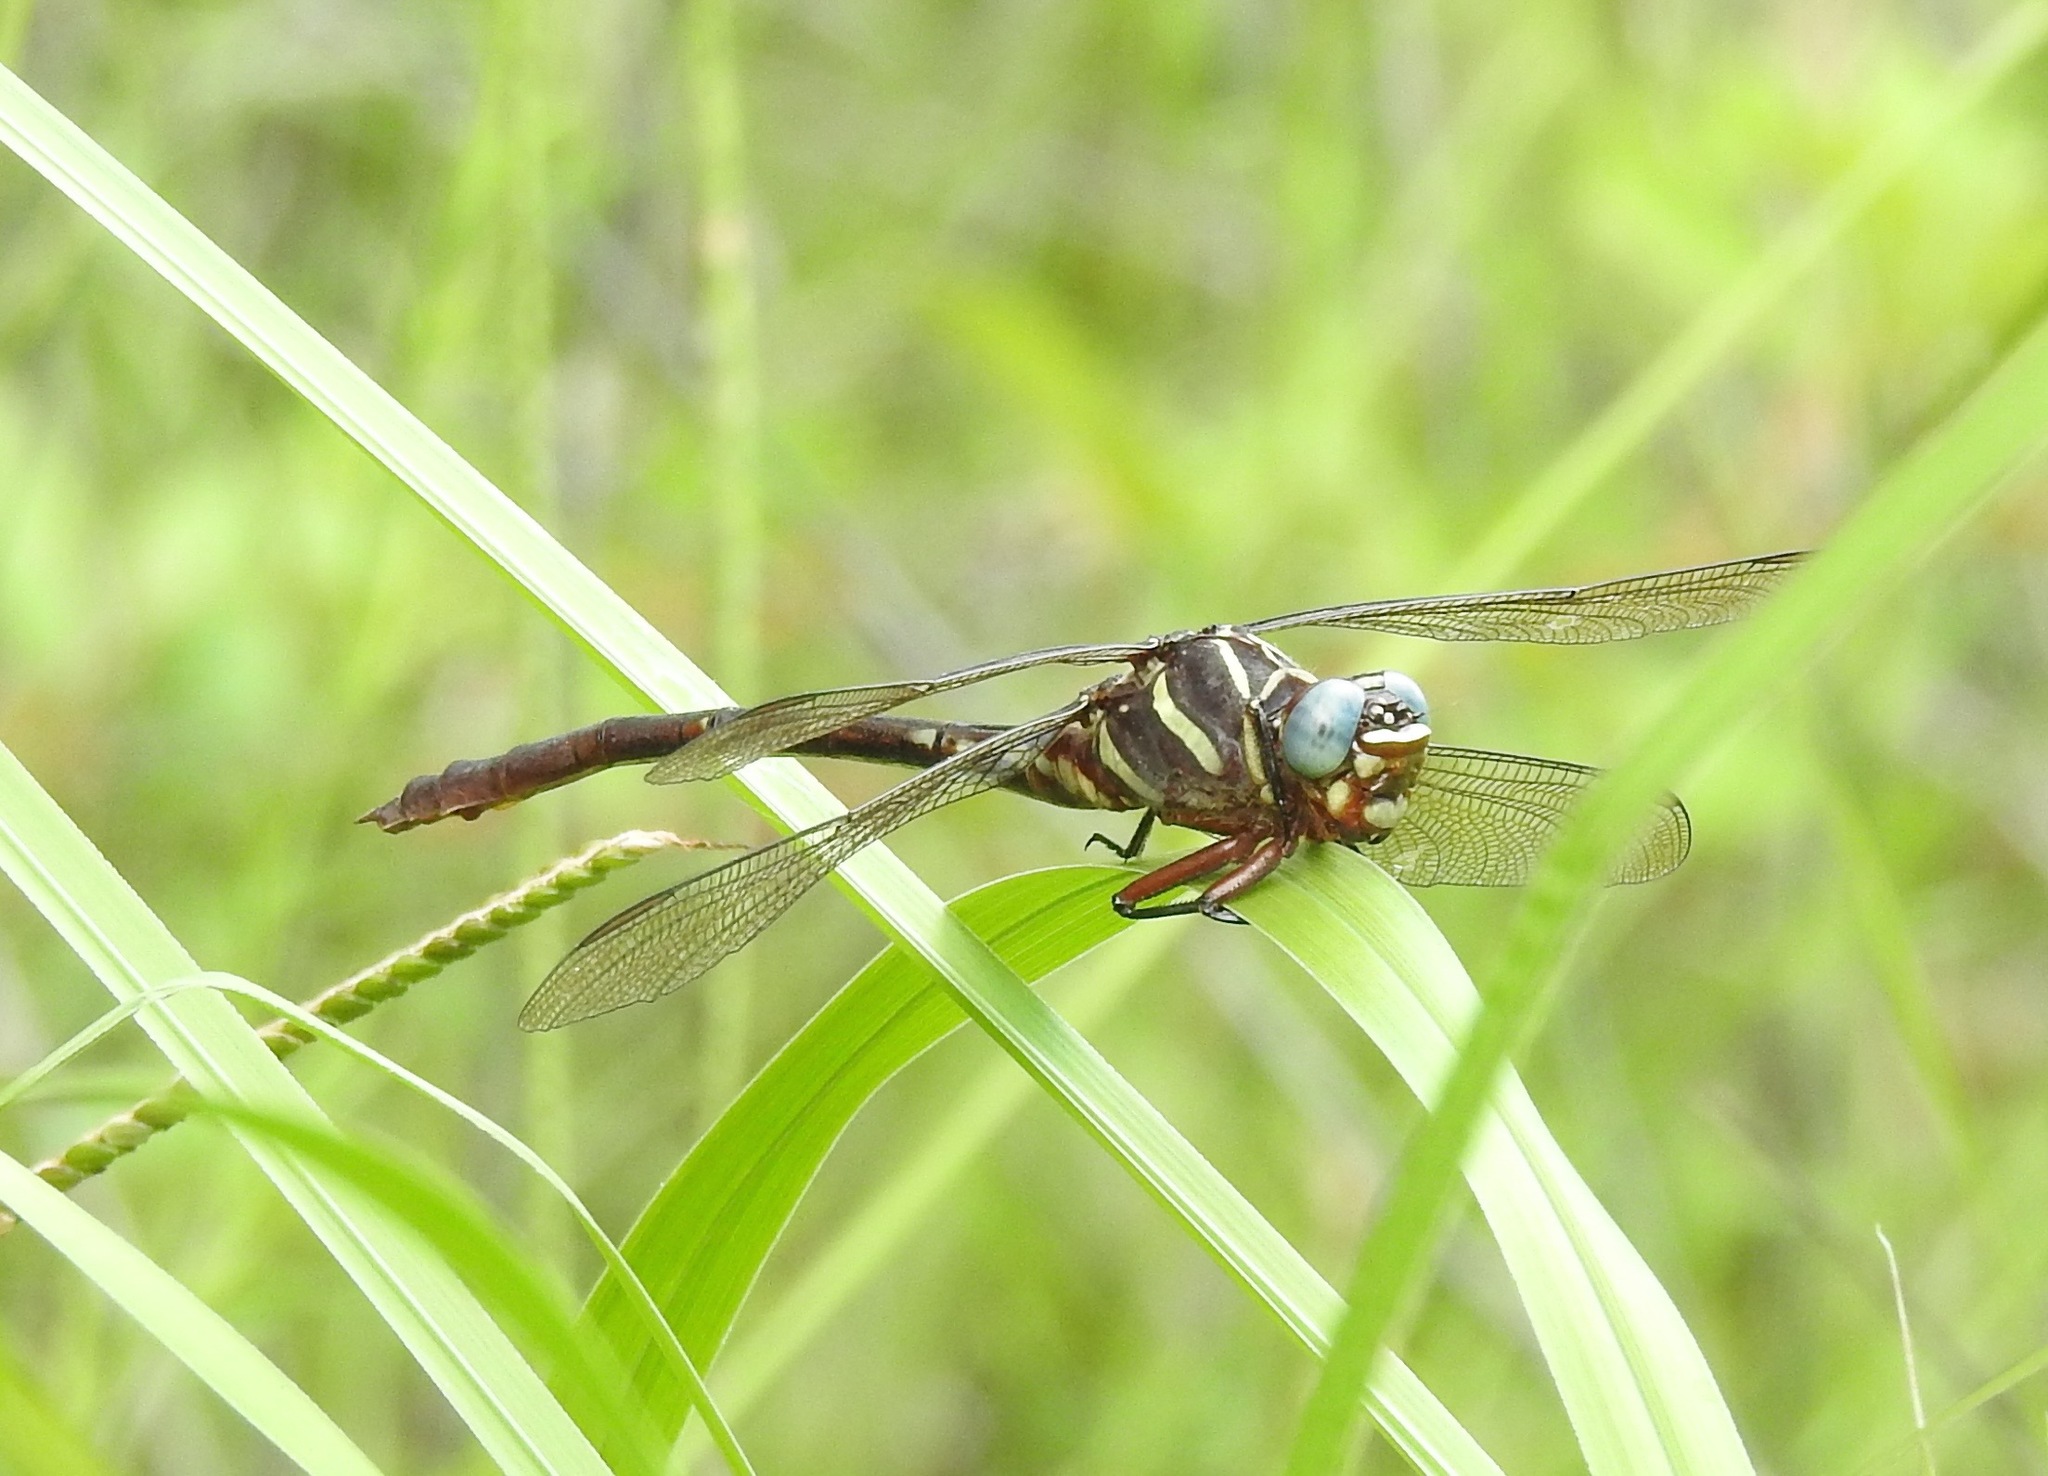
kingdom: Animalia
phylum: Arthropoda
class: Insecta
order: Odonata
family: Gomphidae
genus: Aphylla
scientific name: Aphylla williamsoni
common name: Two-striped forceptail
